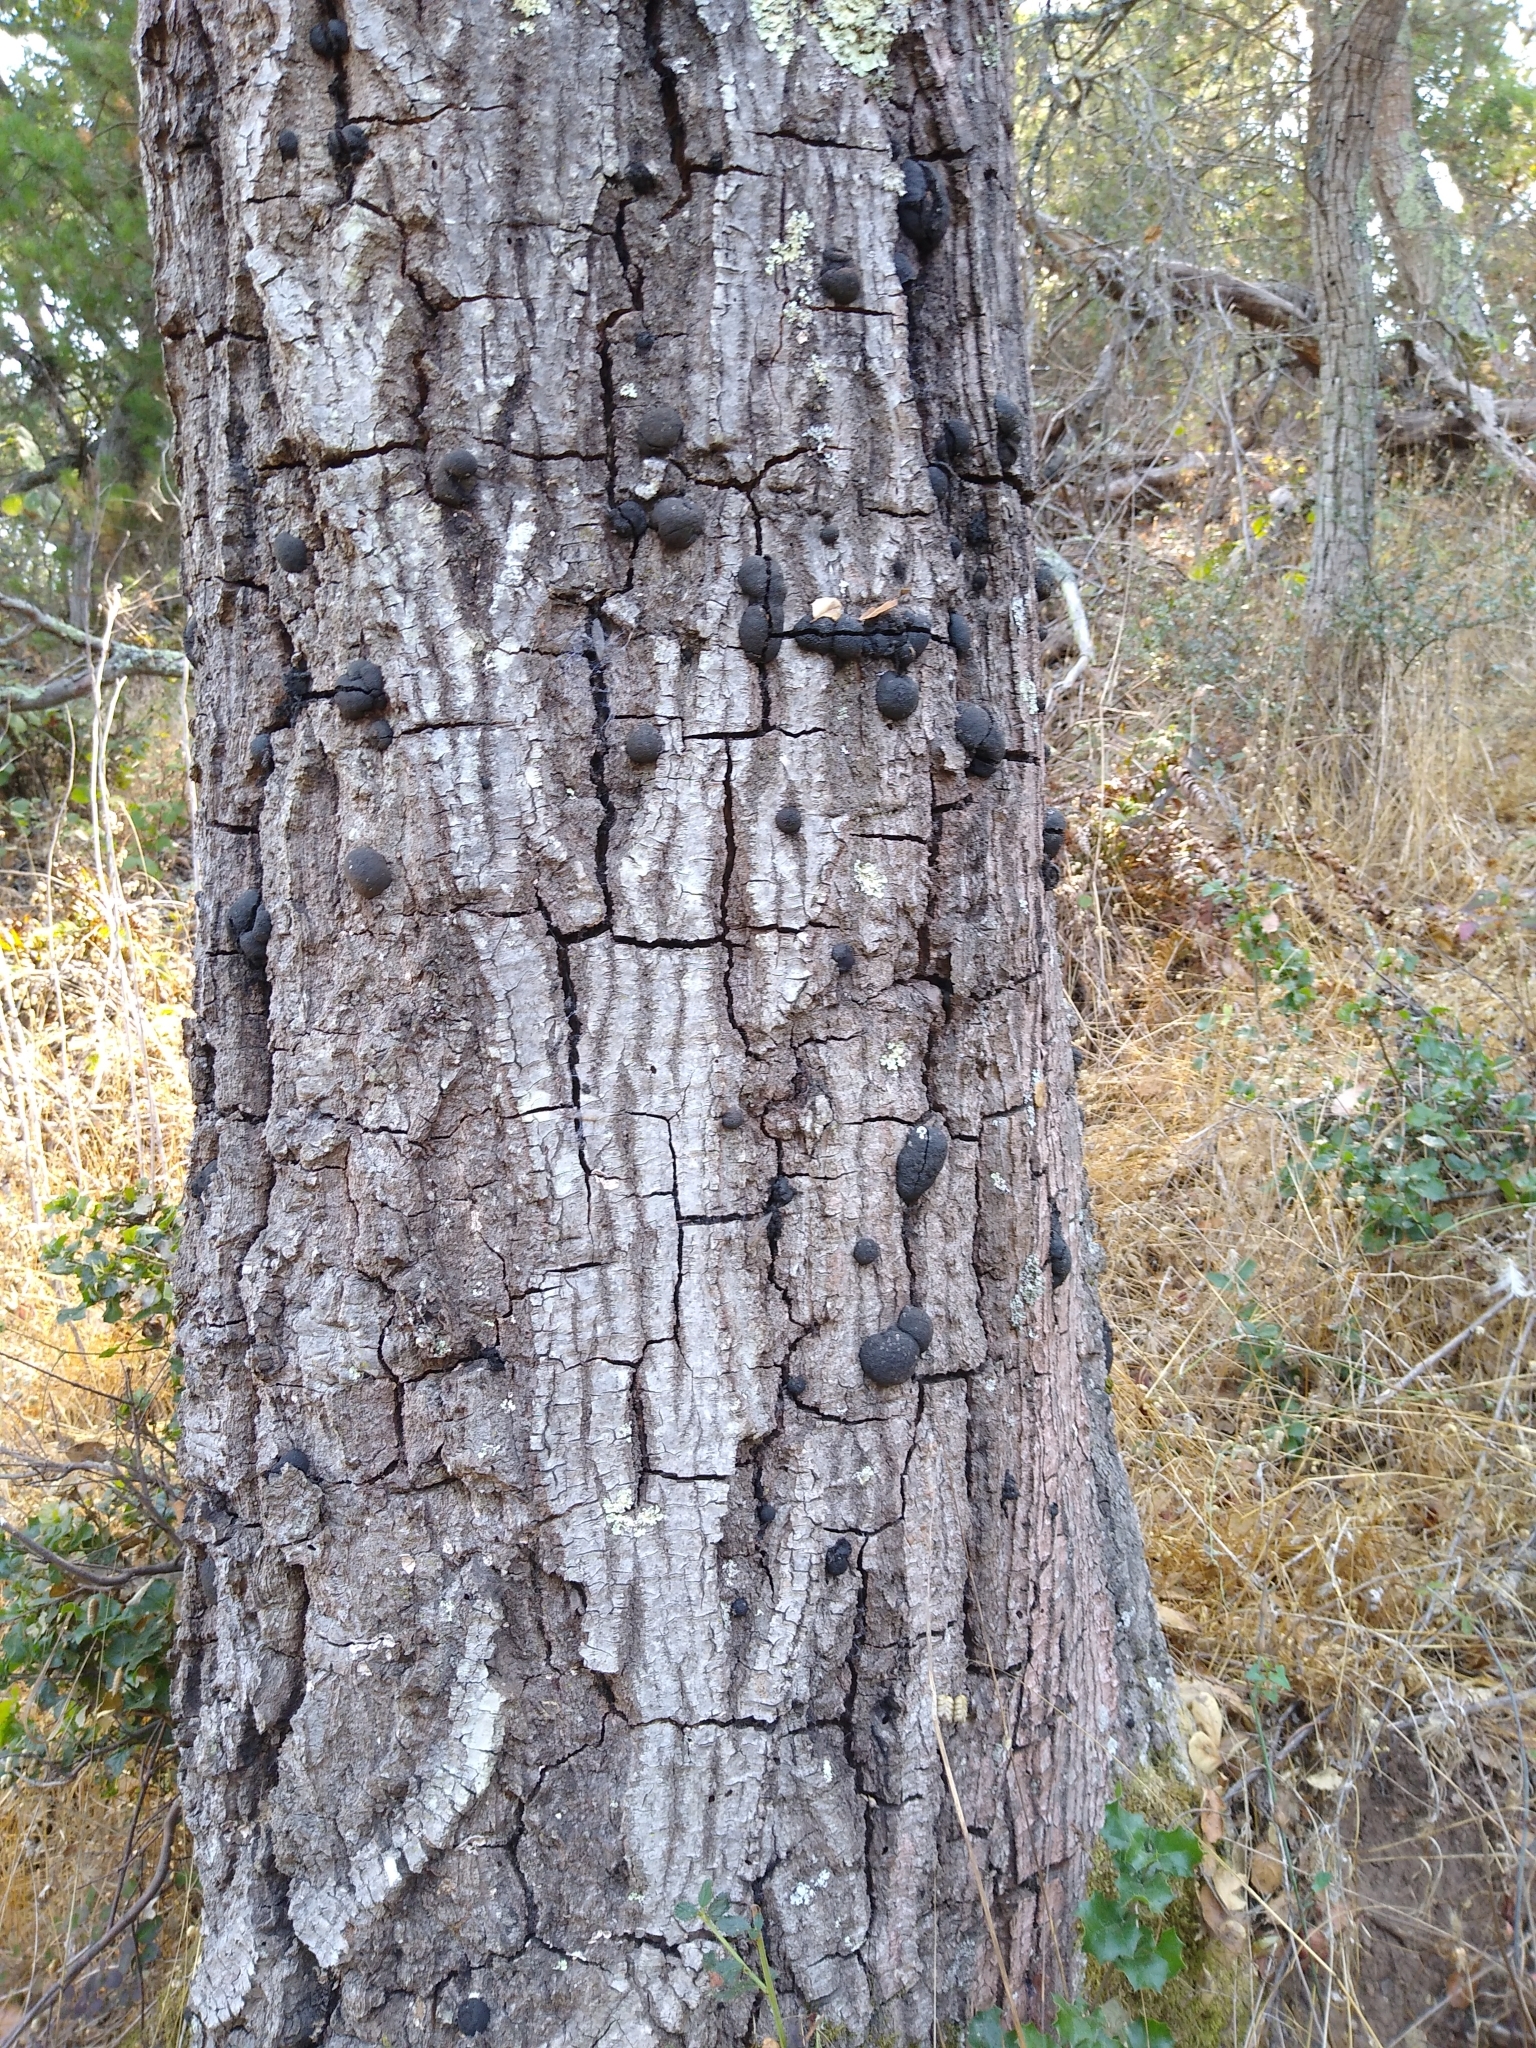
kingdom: Fungi
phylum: Ascomycota
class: Sordariomycetes
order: Xylariales
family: Hypoxylaceae
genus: Annulohypoxylon
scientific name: Annulohypoxylon thouarsianum
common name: Cramp balls
